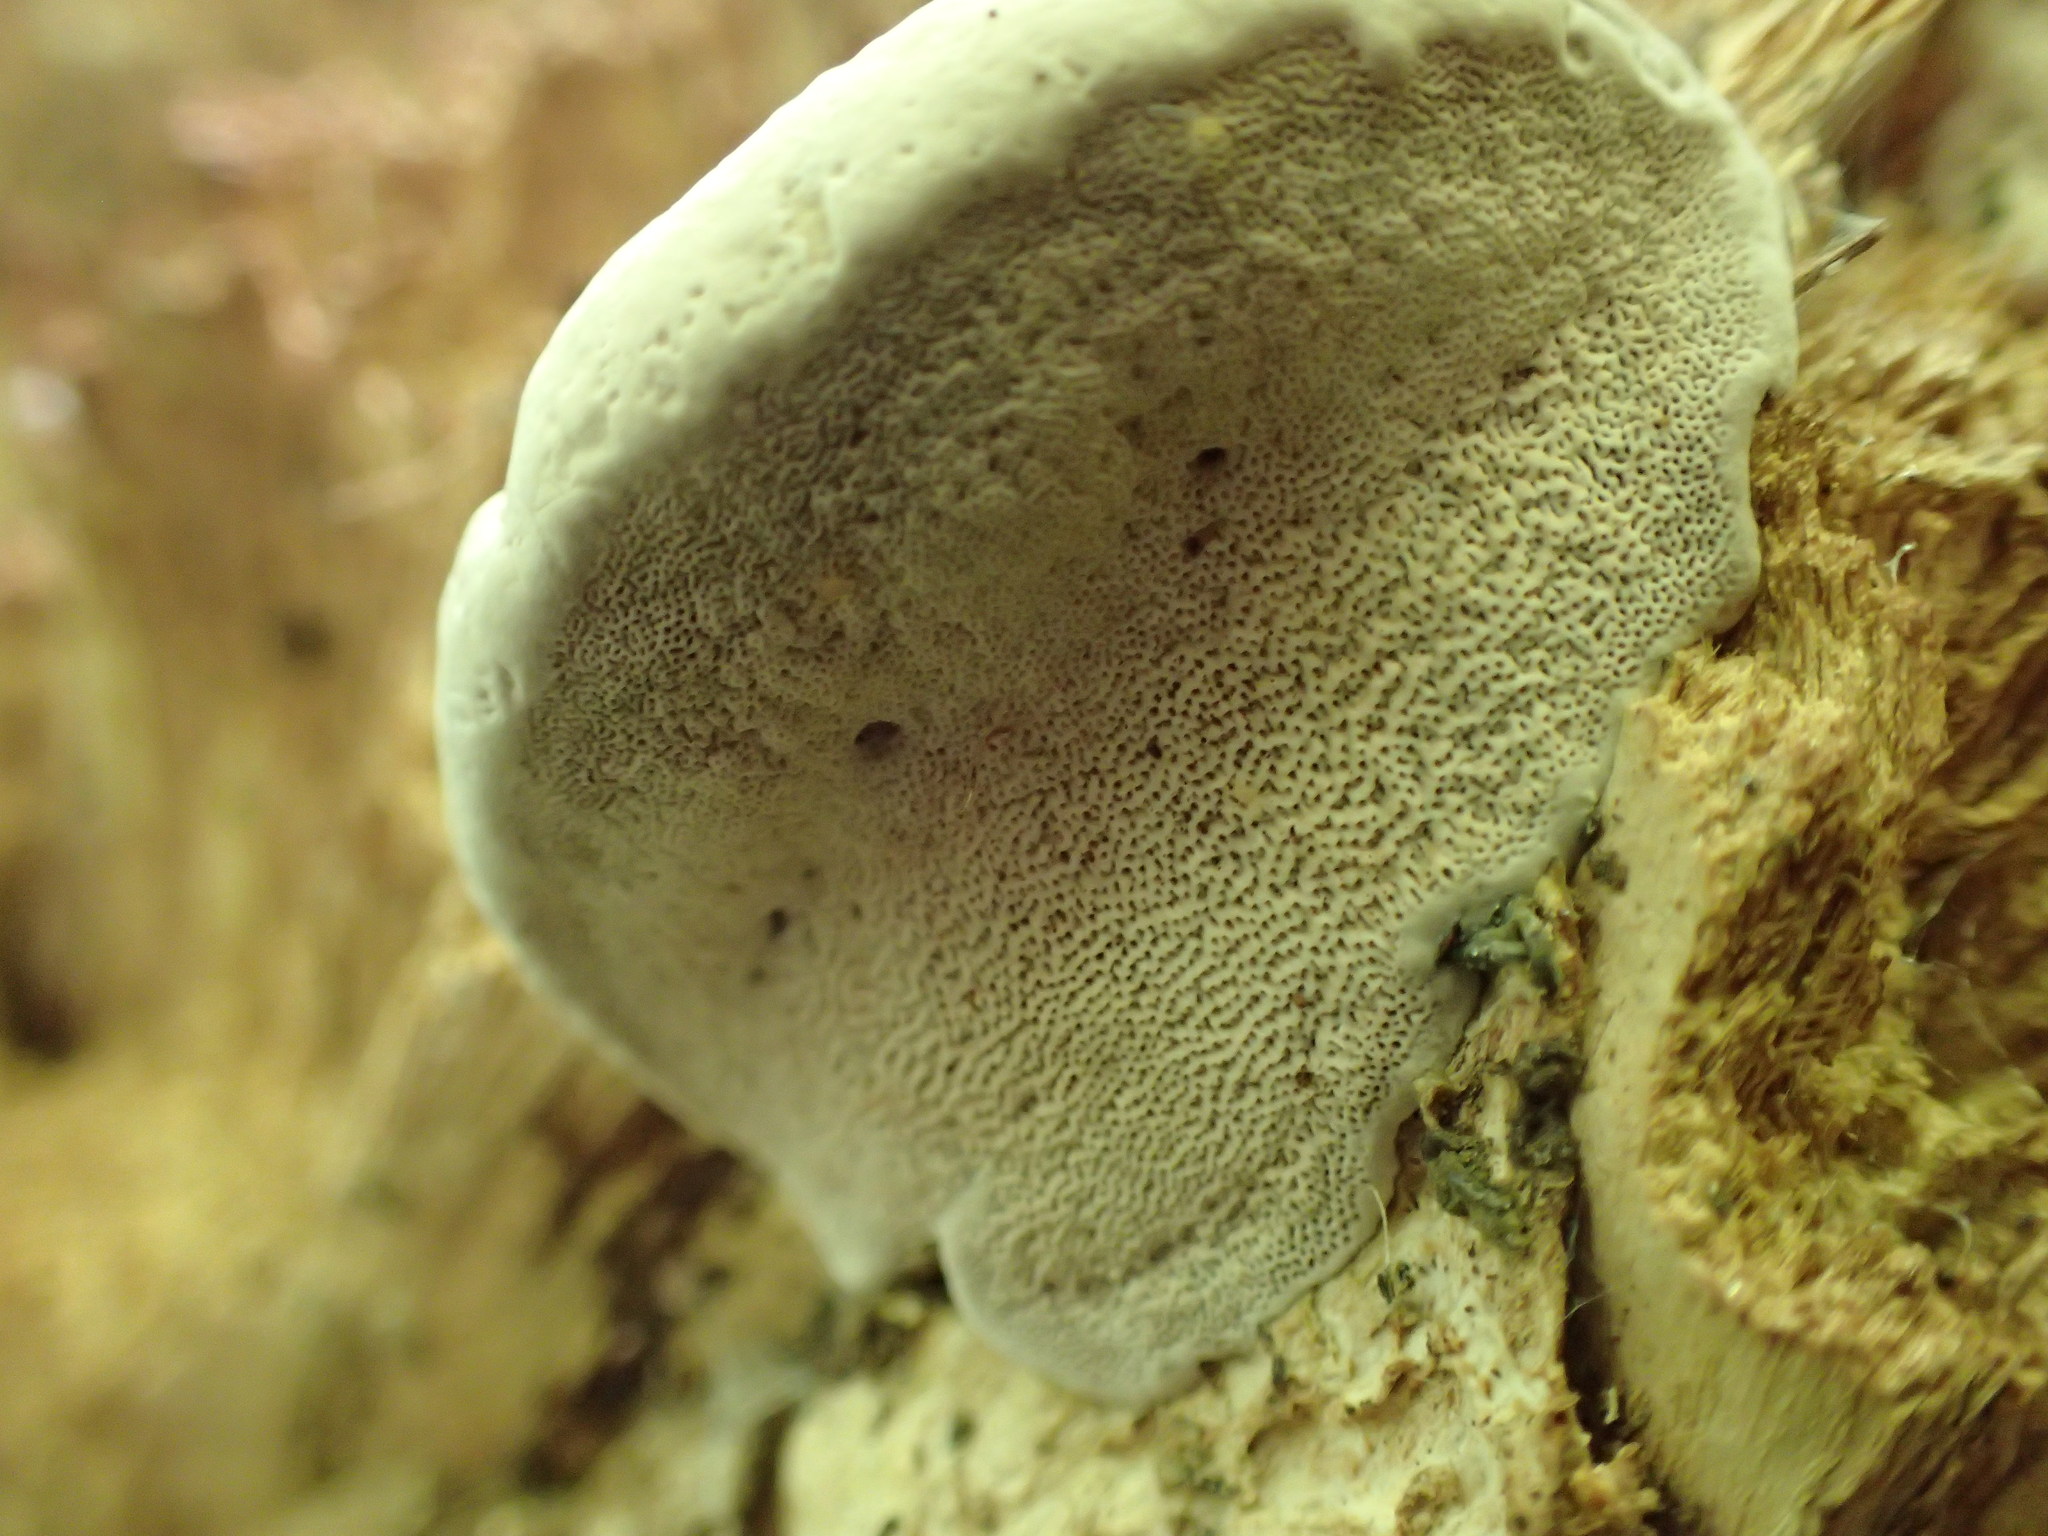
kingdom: Fungi
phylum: Basidiomycota
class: Agaricomycetes
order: Polyporales
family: Polyporaceae
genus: Ganoderma
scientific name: Ganoderma applanatum
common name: Artist's bracket
